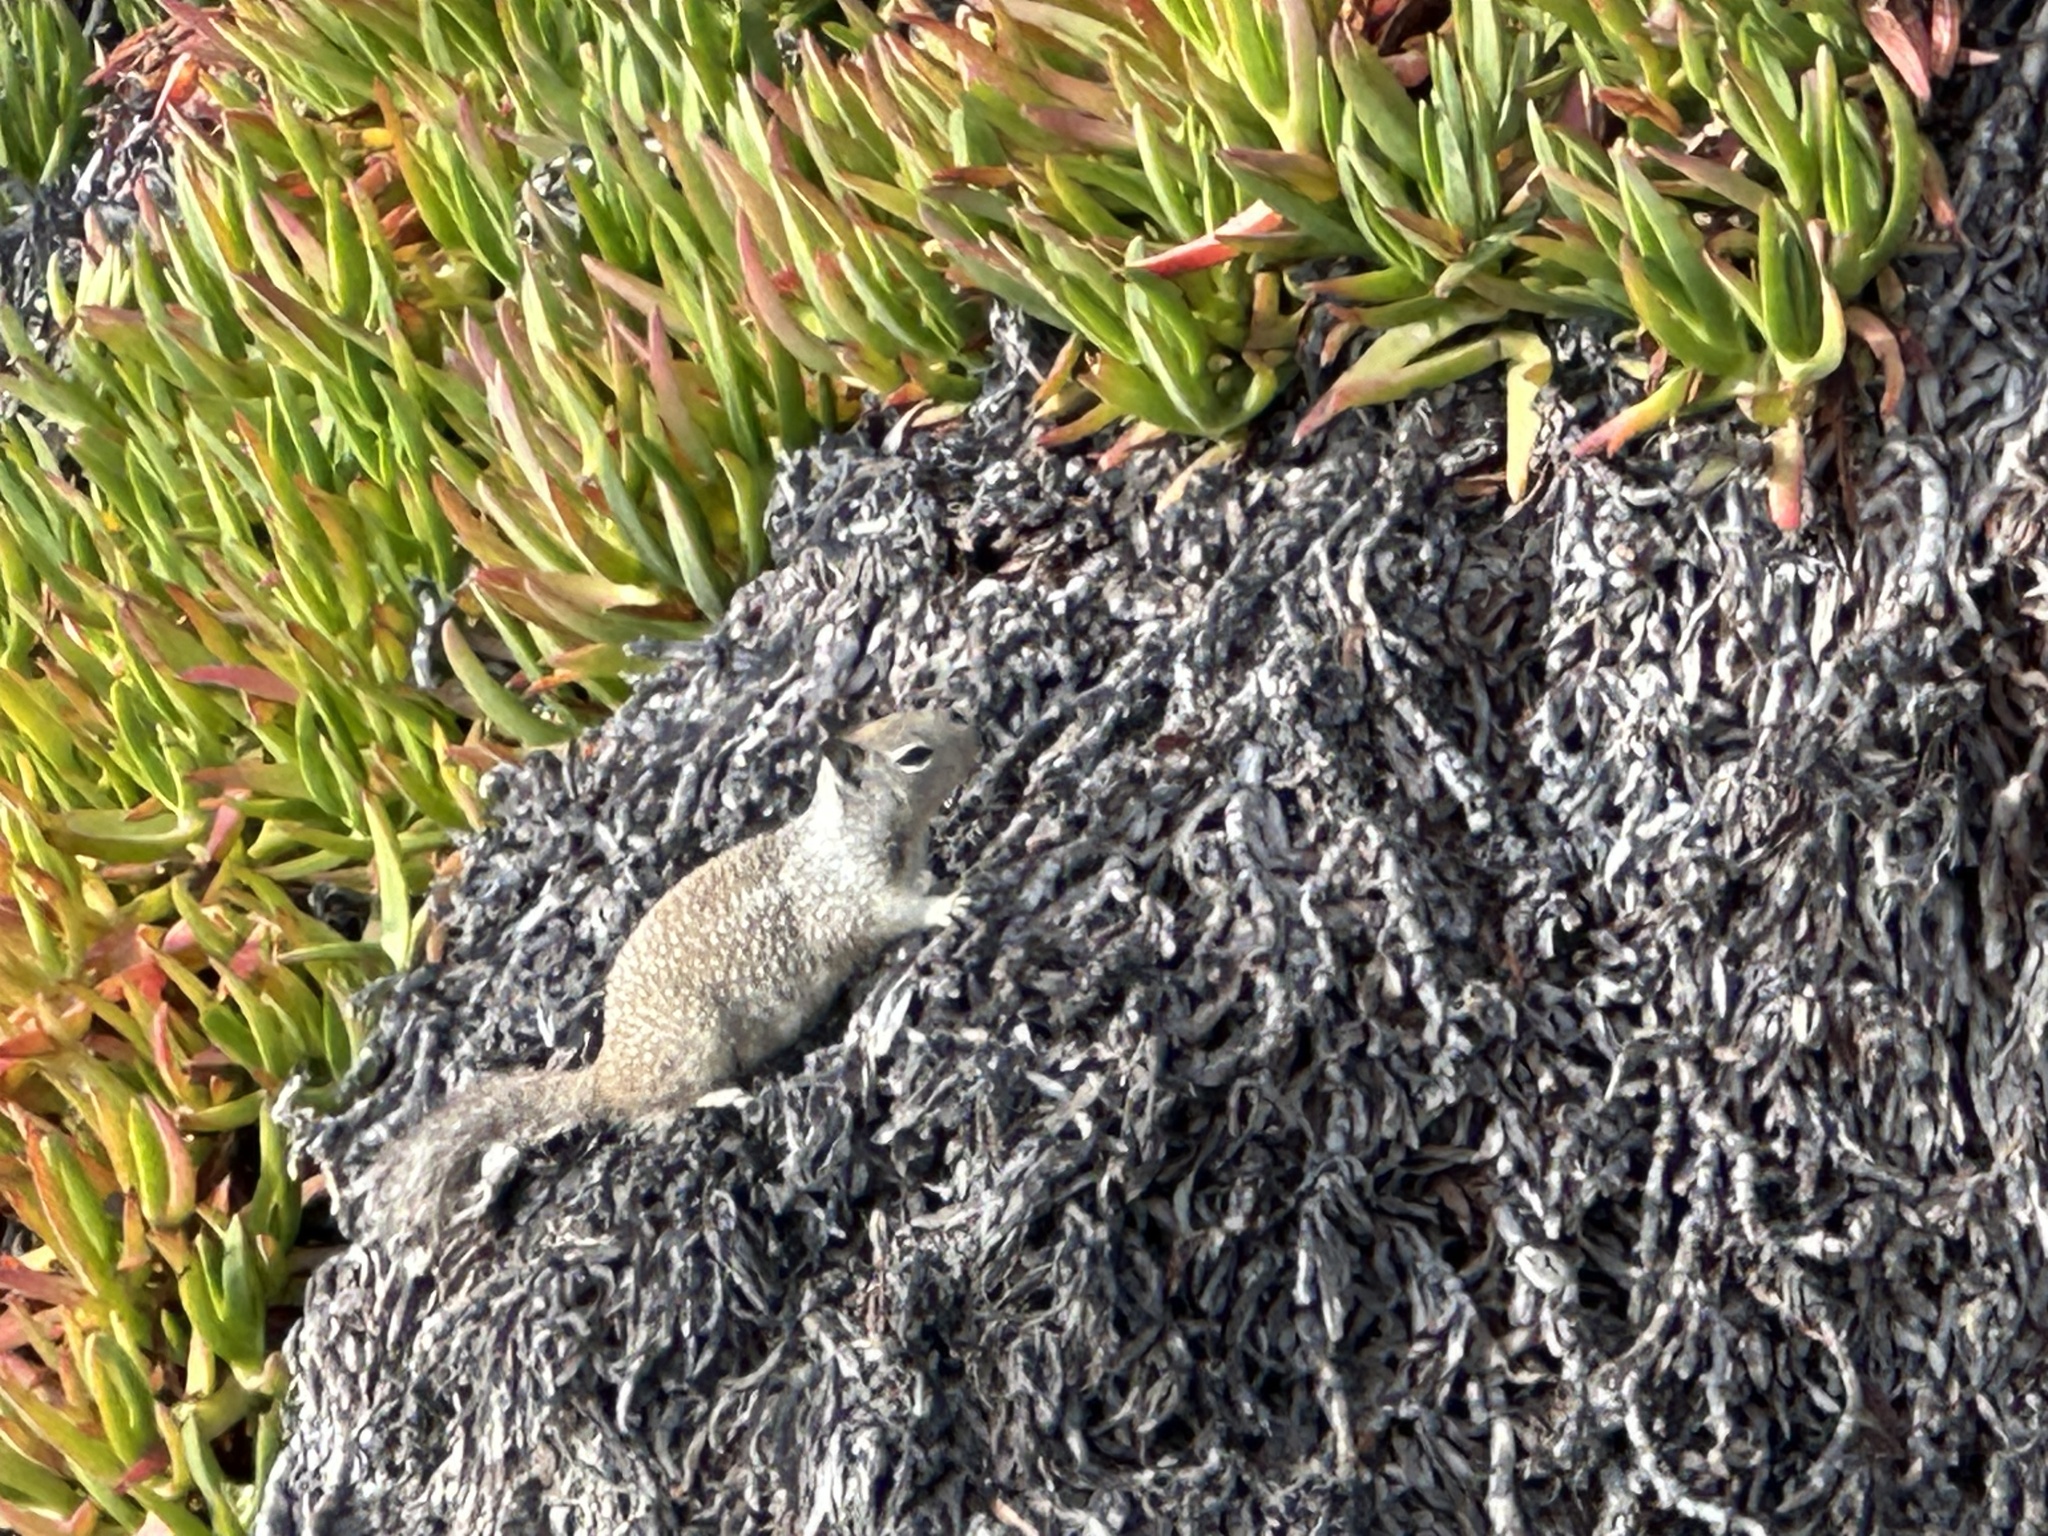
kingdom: Animalia
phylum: Chordata
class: Mammalia
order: Rodentia
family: Sciuridae
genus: Otospermophilus
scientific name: Otospermophilus beecheyi
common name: California ground squirrel
